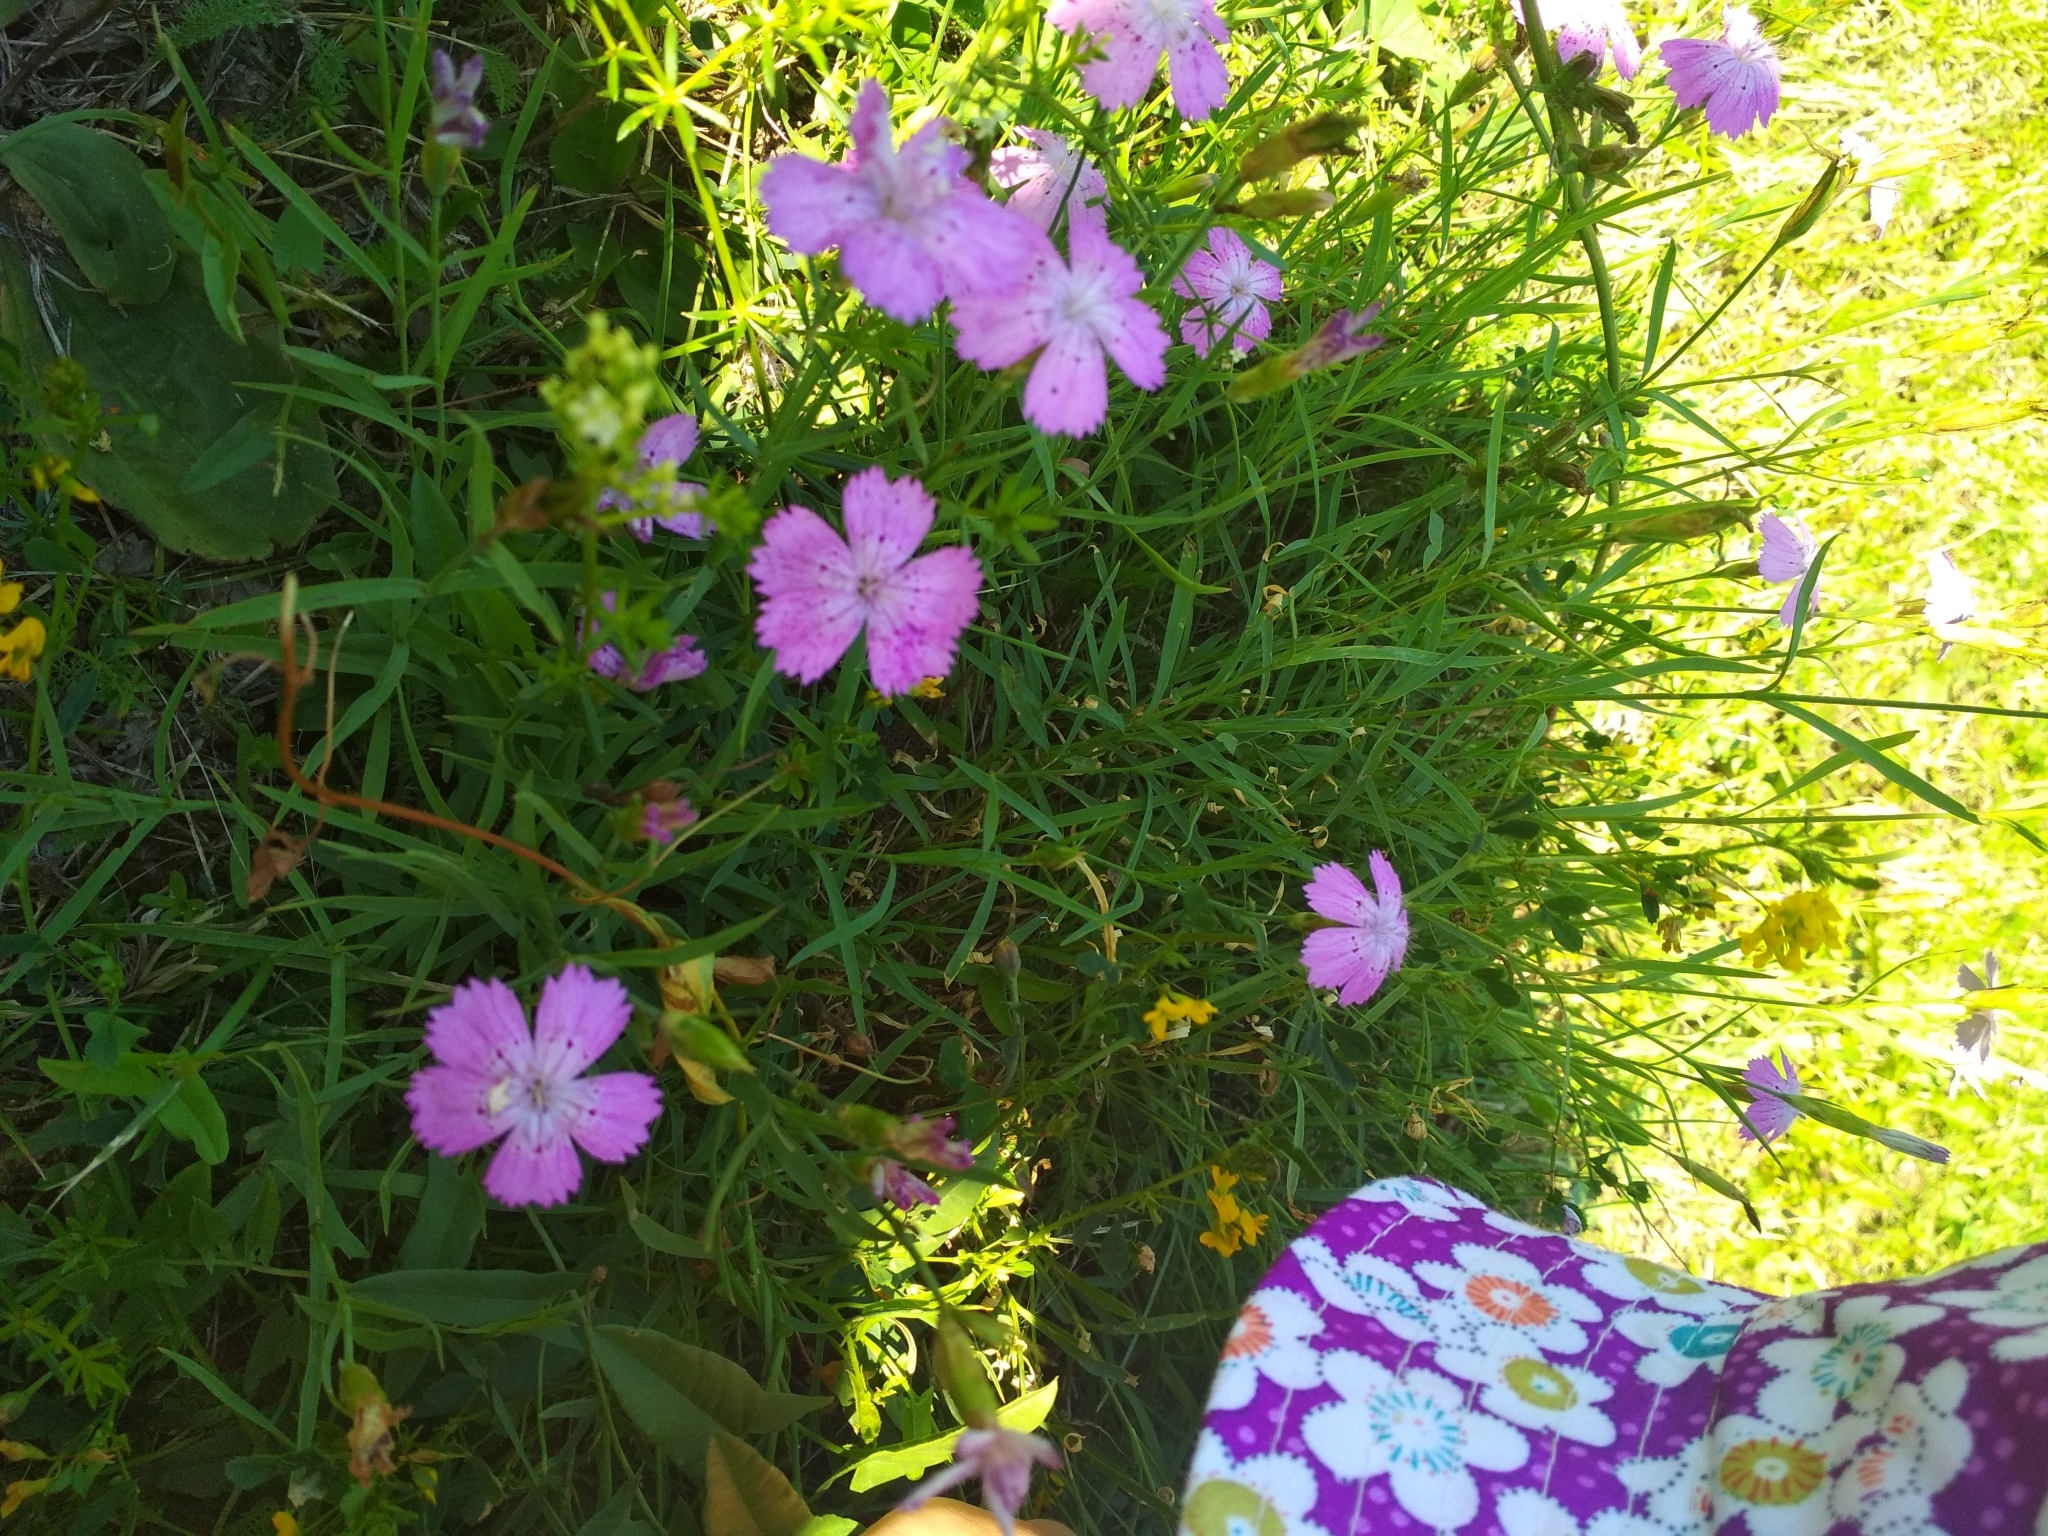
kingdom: Plantae
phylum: Tracheophyta
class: Magnoliopsida
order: Caryophyllales
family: Caryophyllaceae
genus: Dianthus
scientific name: Dianthus chinensis
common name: Rainbow pink
